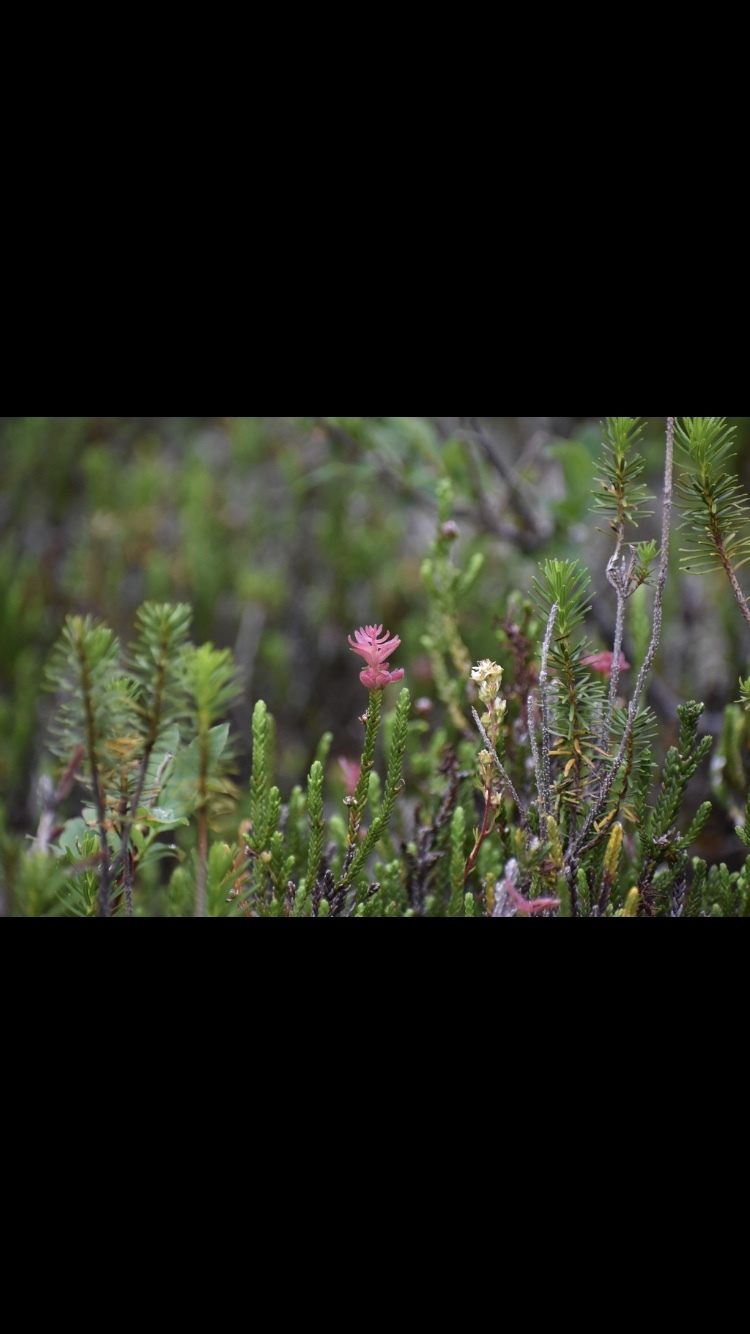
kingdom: Fungi
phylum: Basidiomycota
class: Exobasidiomycetes
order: Exobasidiales
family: Exobasidiaceae
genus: Exobasidium
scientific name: Exobasidium cassiopes
